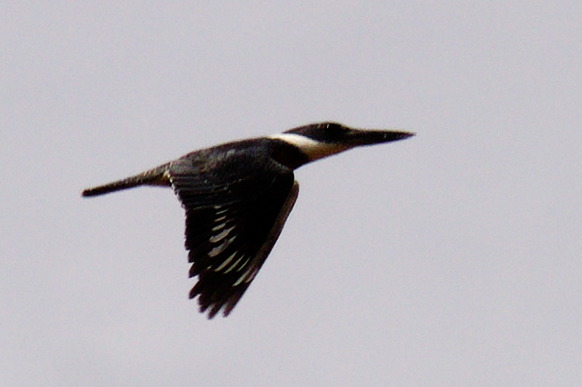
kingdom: Animalia
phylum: Chordata
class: Aves
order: Coraciiformes
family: Alcedinidae
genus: Chloroceryle
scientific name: Chloroceryle amazona
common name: Amazon kingfisher
